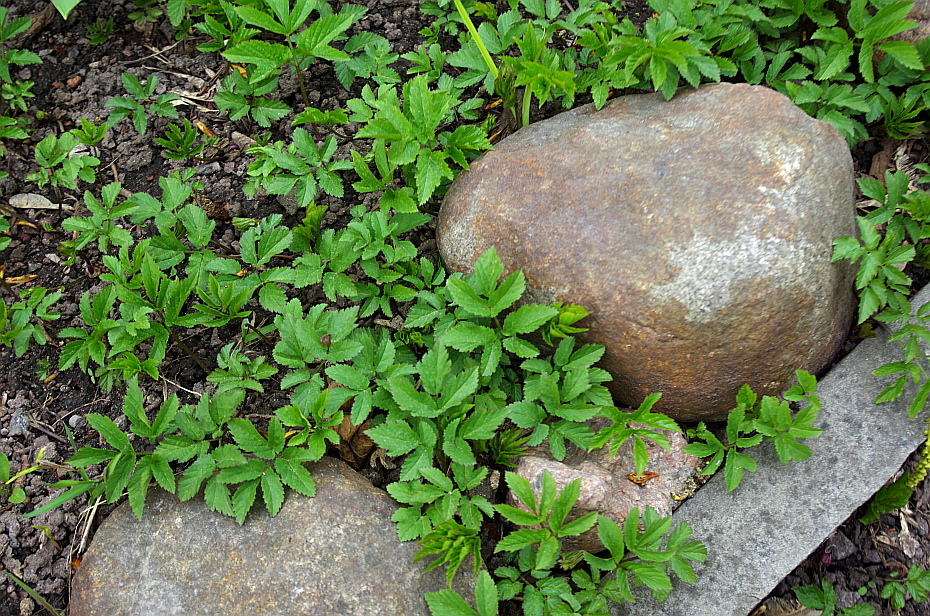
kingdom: Plantae
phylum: Tracheophyta
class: Magnoliopsida
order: Apiales
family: Apiaceae
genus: Aegopodium
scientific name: Aegopodium podagraria
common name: Ground-elder
